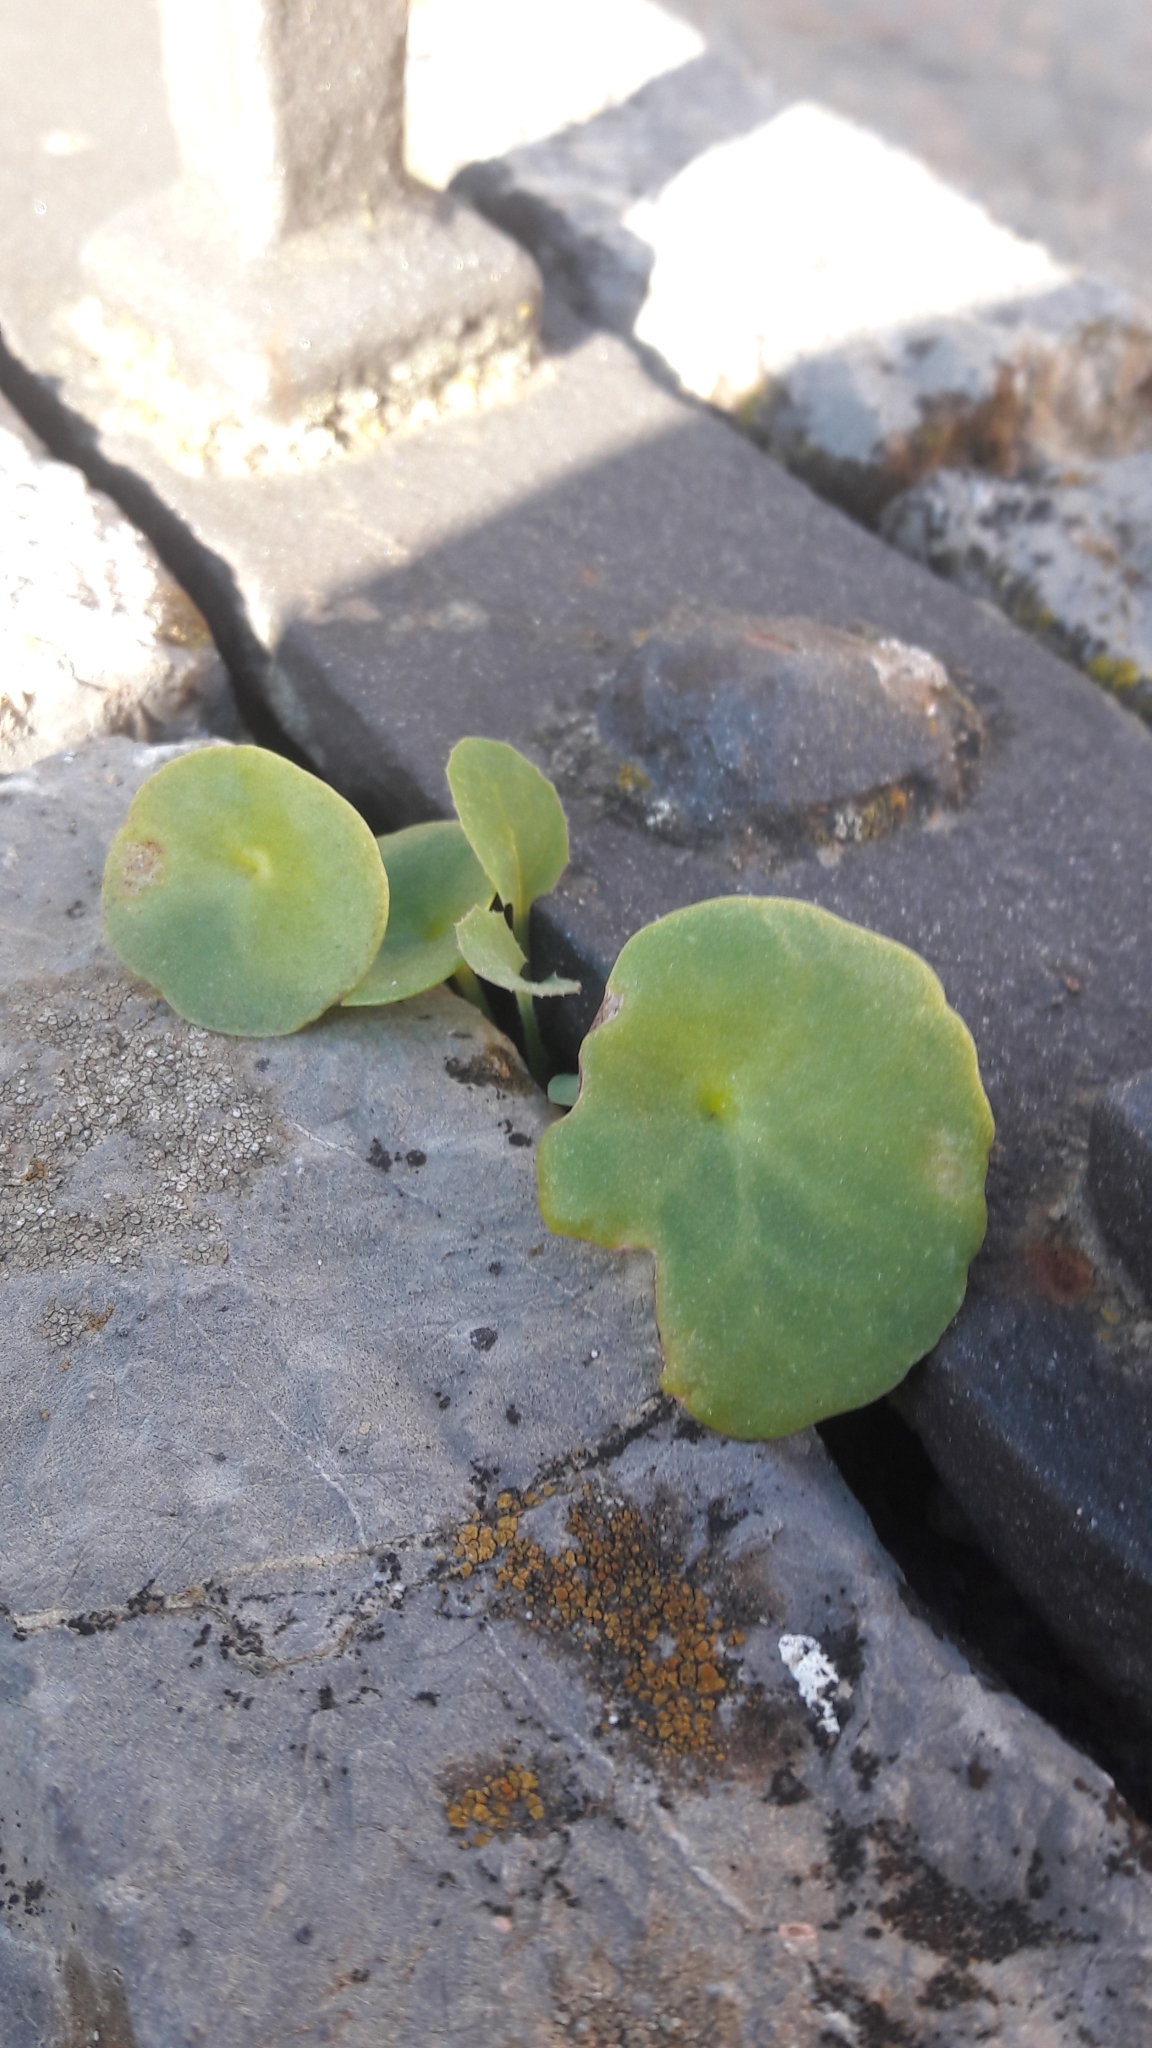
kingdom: Plantae
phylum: Tracheophyta
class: Magnoliopsida
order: Saxifragales
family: Crassulaceae
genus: Umbilicus
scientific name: Umbilicus rupestris
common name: Navelwort
